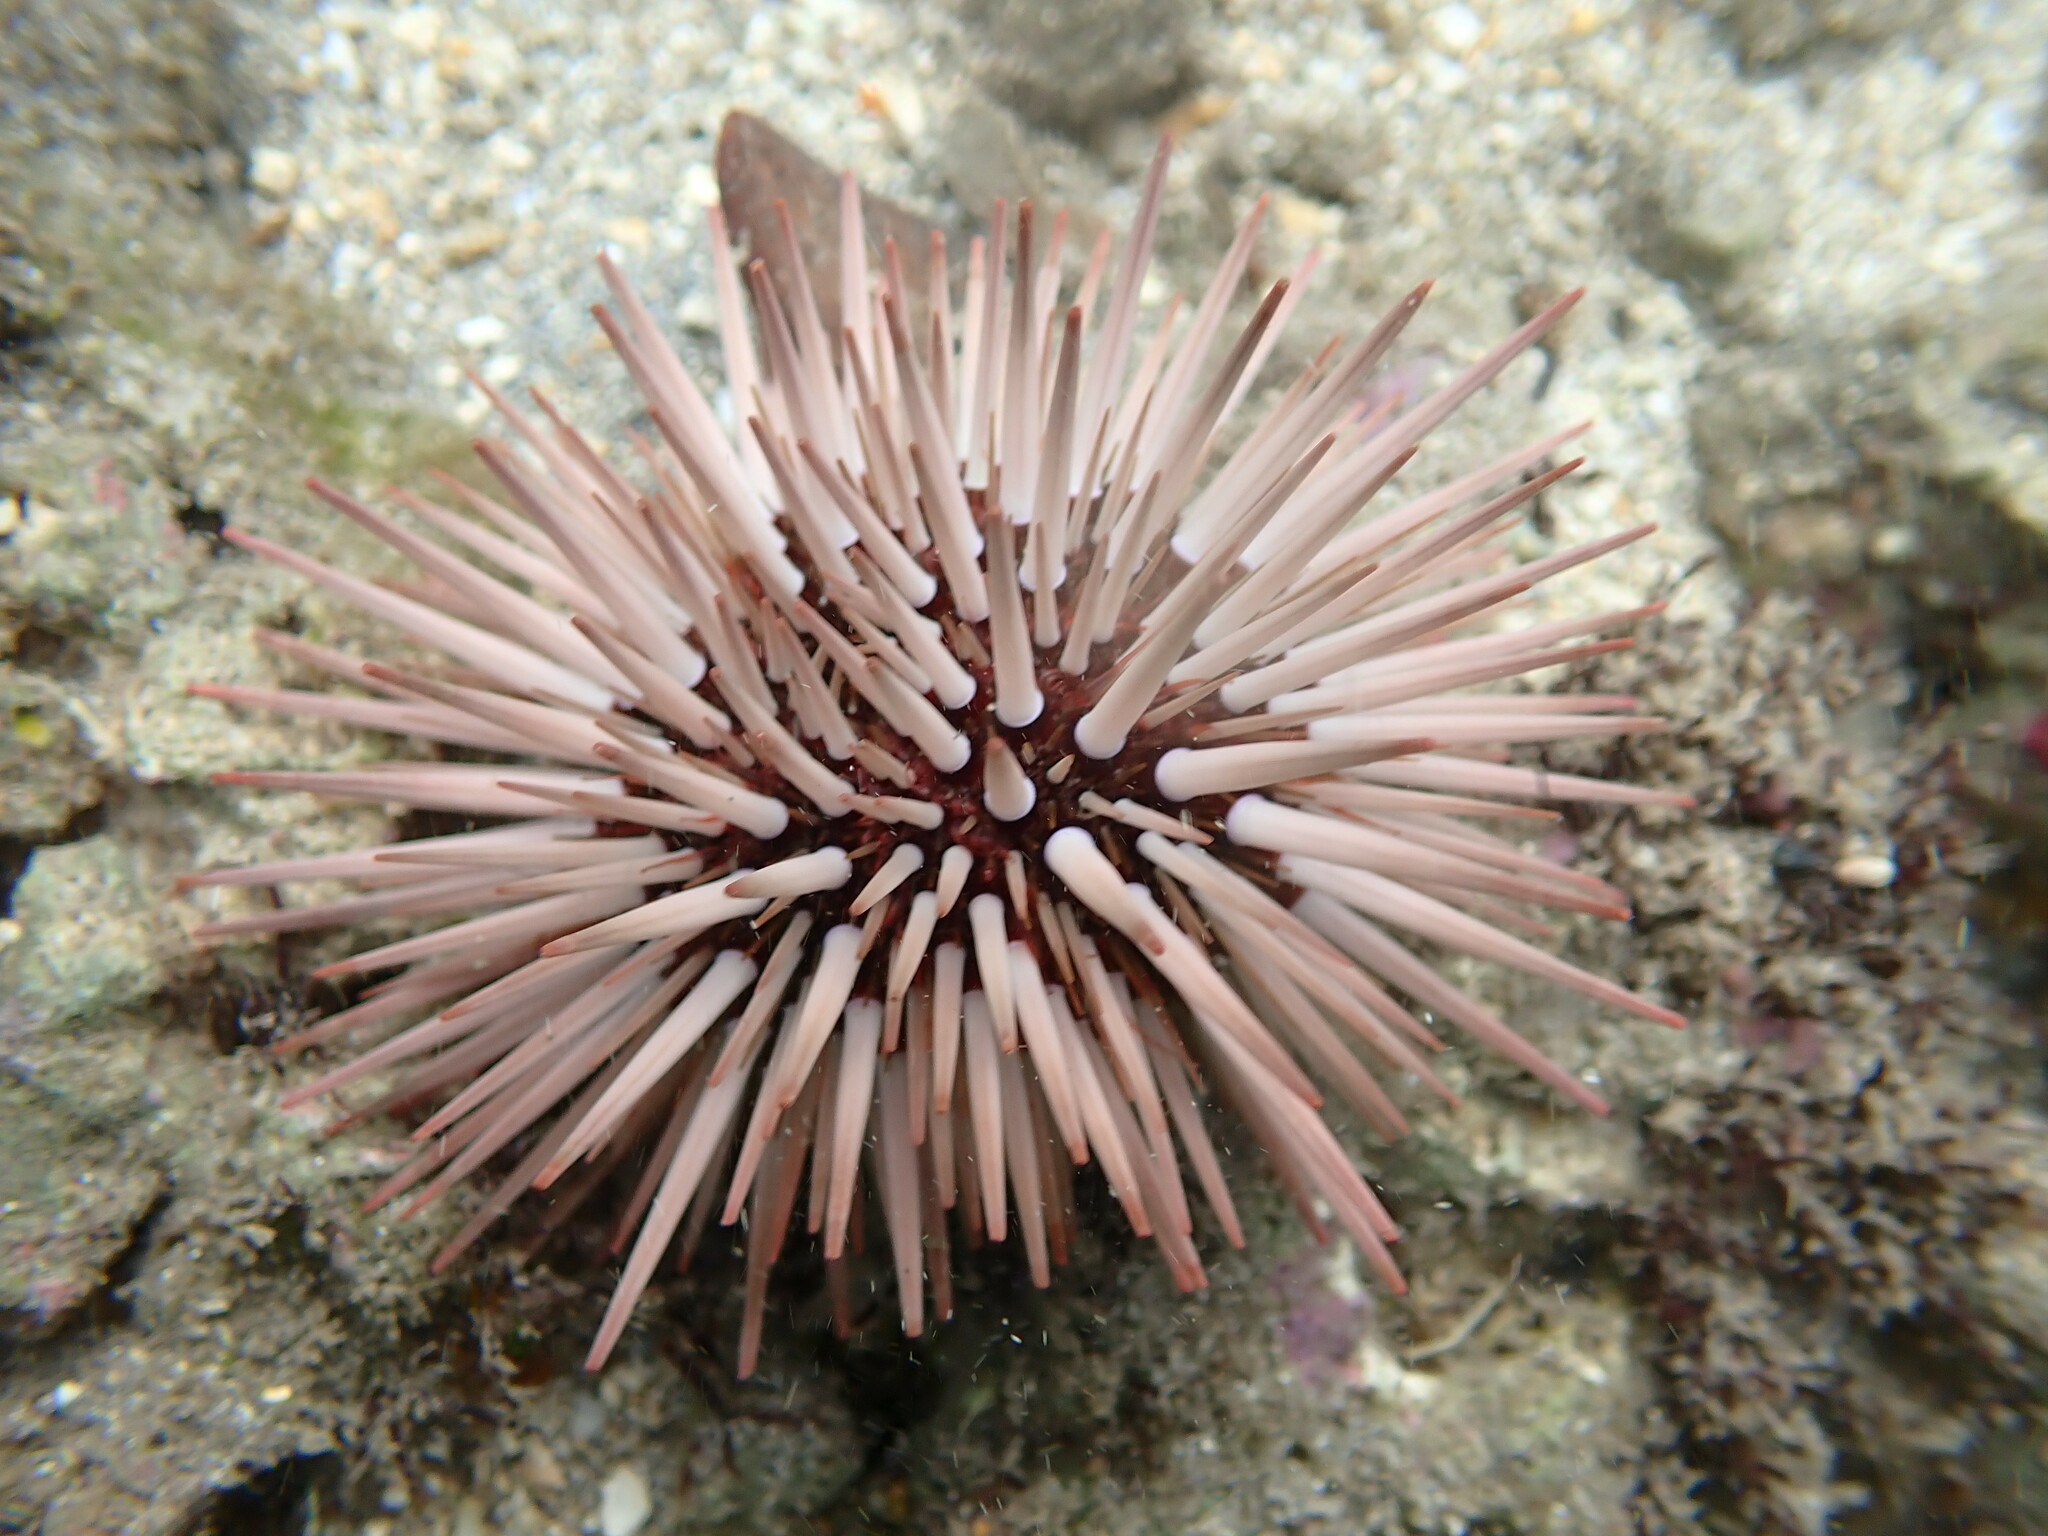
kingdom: Animalia
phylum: Echinodermata
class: Echinoidea
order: Camarodonta
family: Echinometridae
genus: Echinometra
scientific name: Echinometra mathaei
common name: Rock-boring urchin
